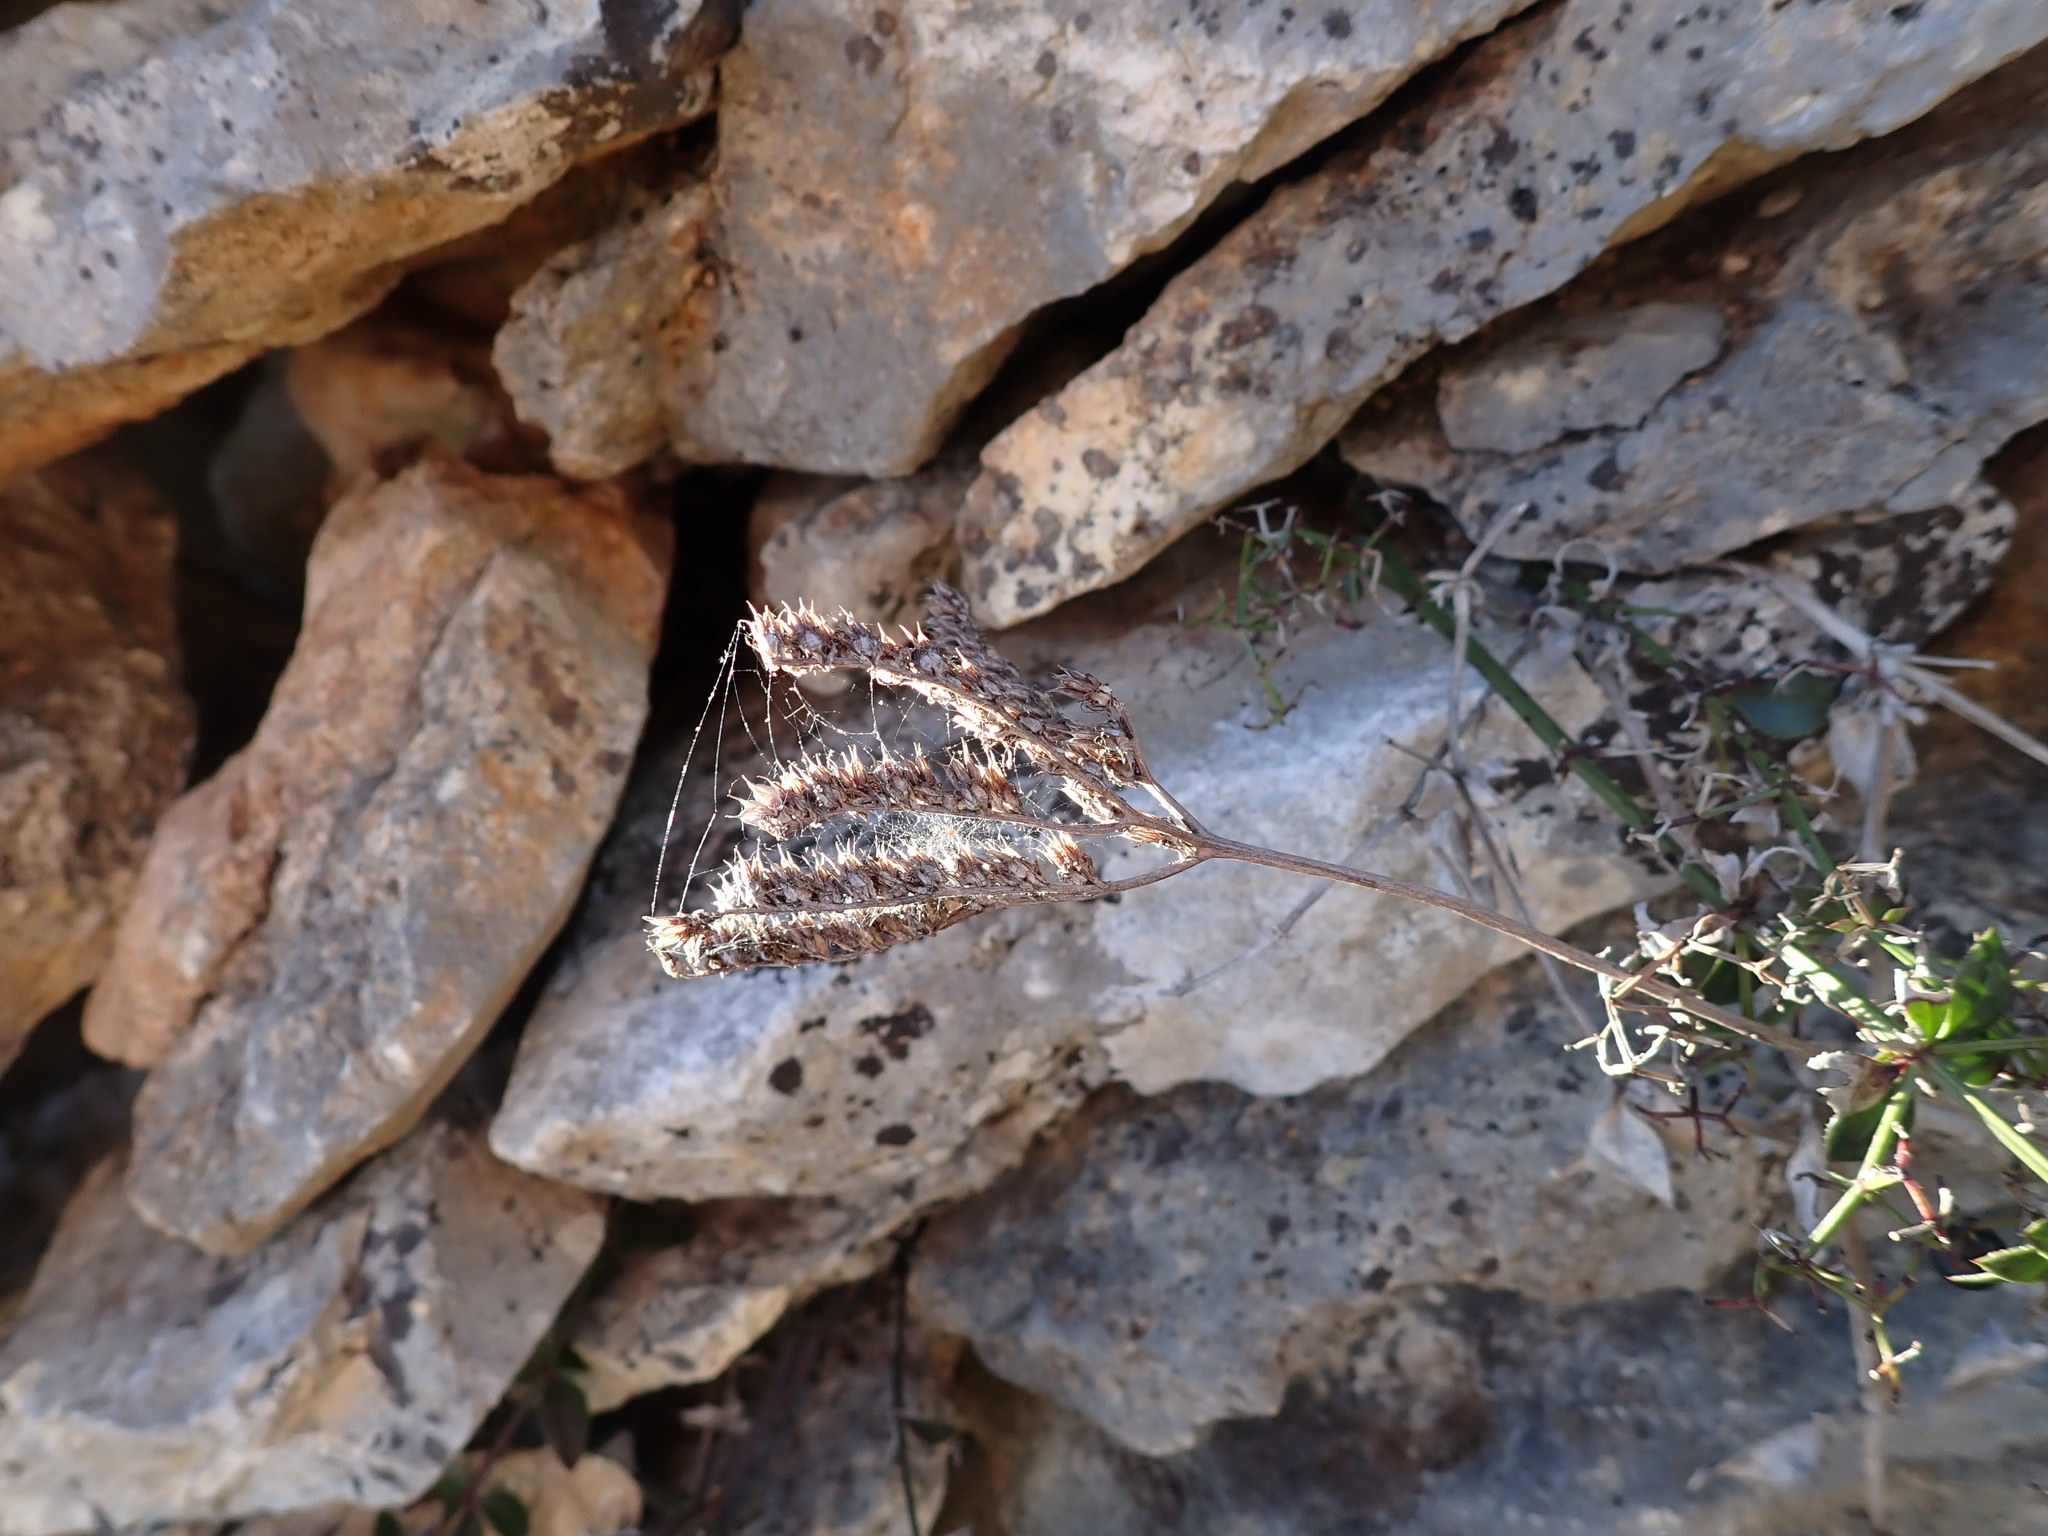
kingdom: Plantae
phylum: Tracheophyta
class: Magnoliopsida
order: Saxifragales
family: Crassulaceae
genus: Petrosedum
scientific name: Petrosedum sediforme
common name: Pale stonecrop
